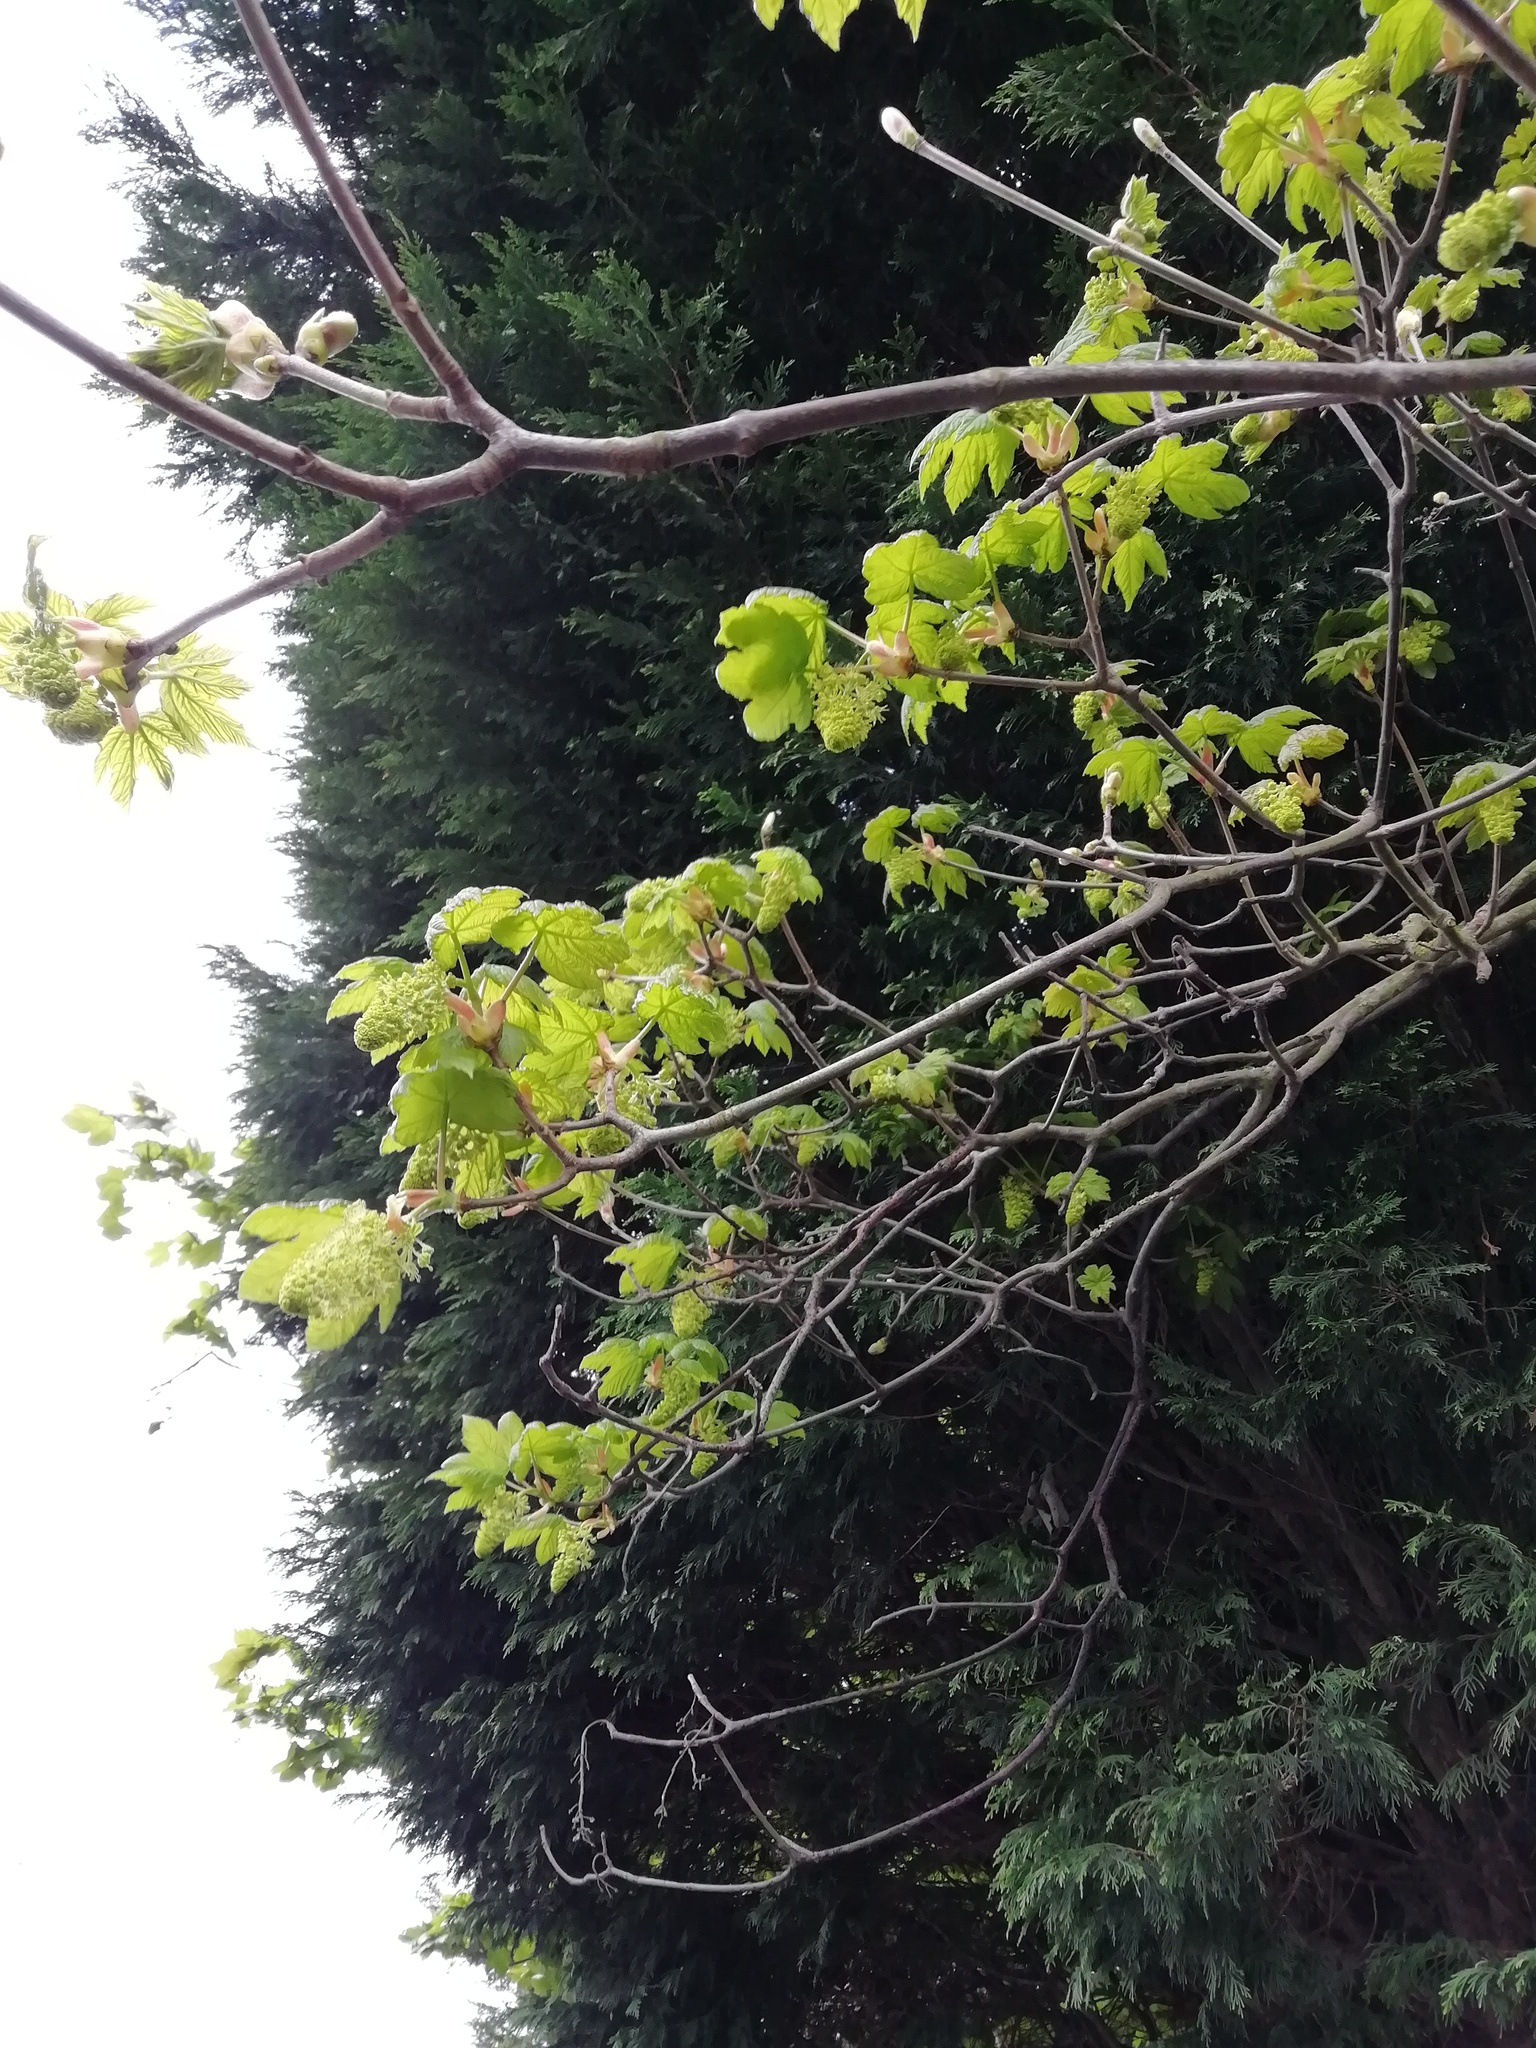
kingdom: Plantae
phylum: Tracheophyta
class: Magnoliopsida
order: Sapindales
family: Sapindaceae
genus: Acer
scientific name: Acer pseudoplatanus
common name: Sycamore
